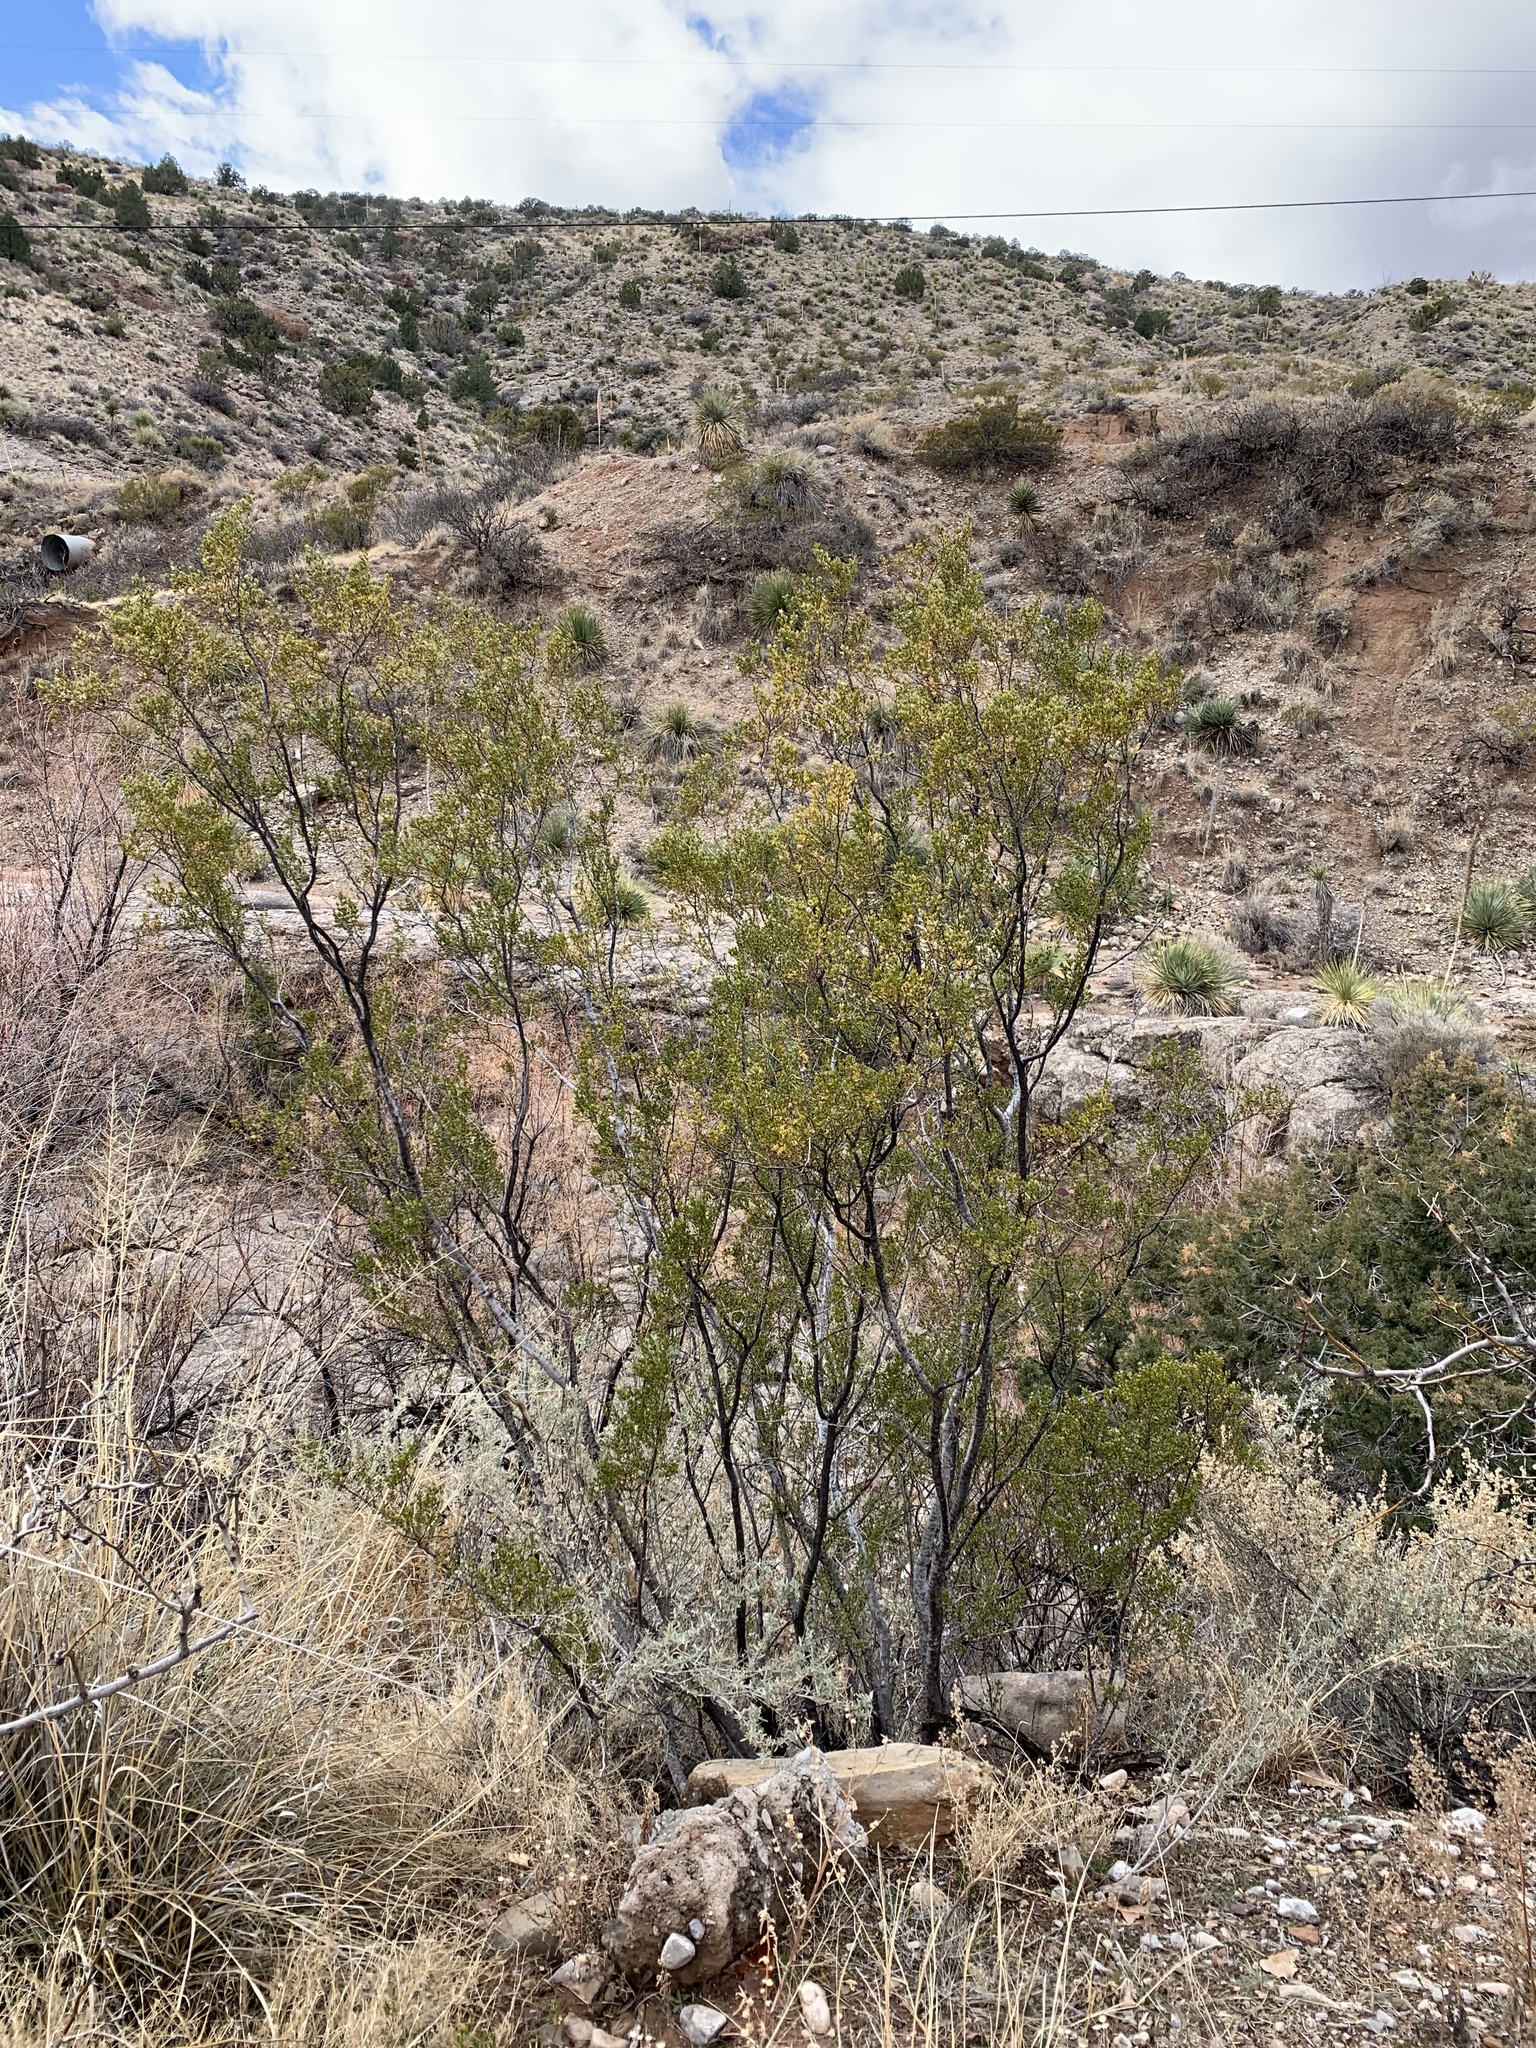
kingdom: Plantae
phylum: Tracheophyta
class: Magnoliopsida
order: Zygophyllales
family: Zygophyllaceae
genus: Larrea
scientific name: Larrea tridentata
